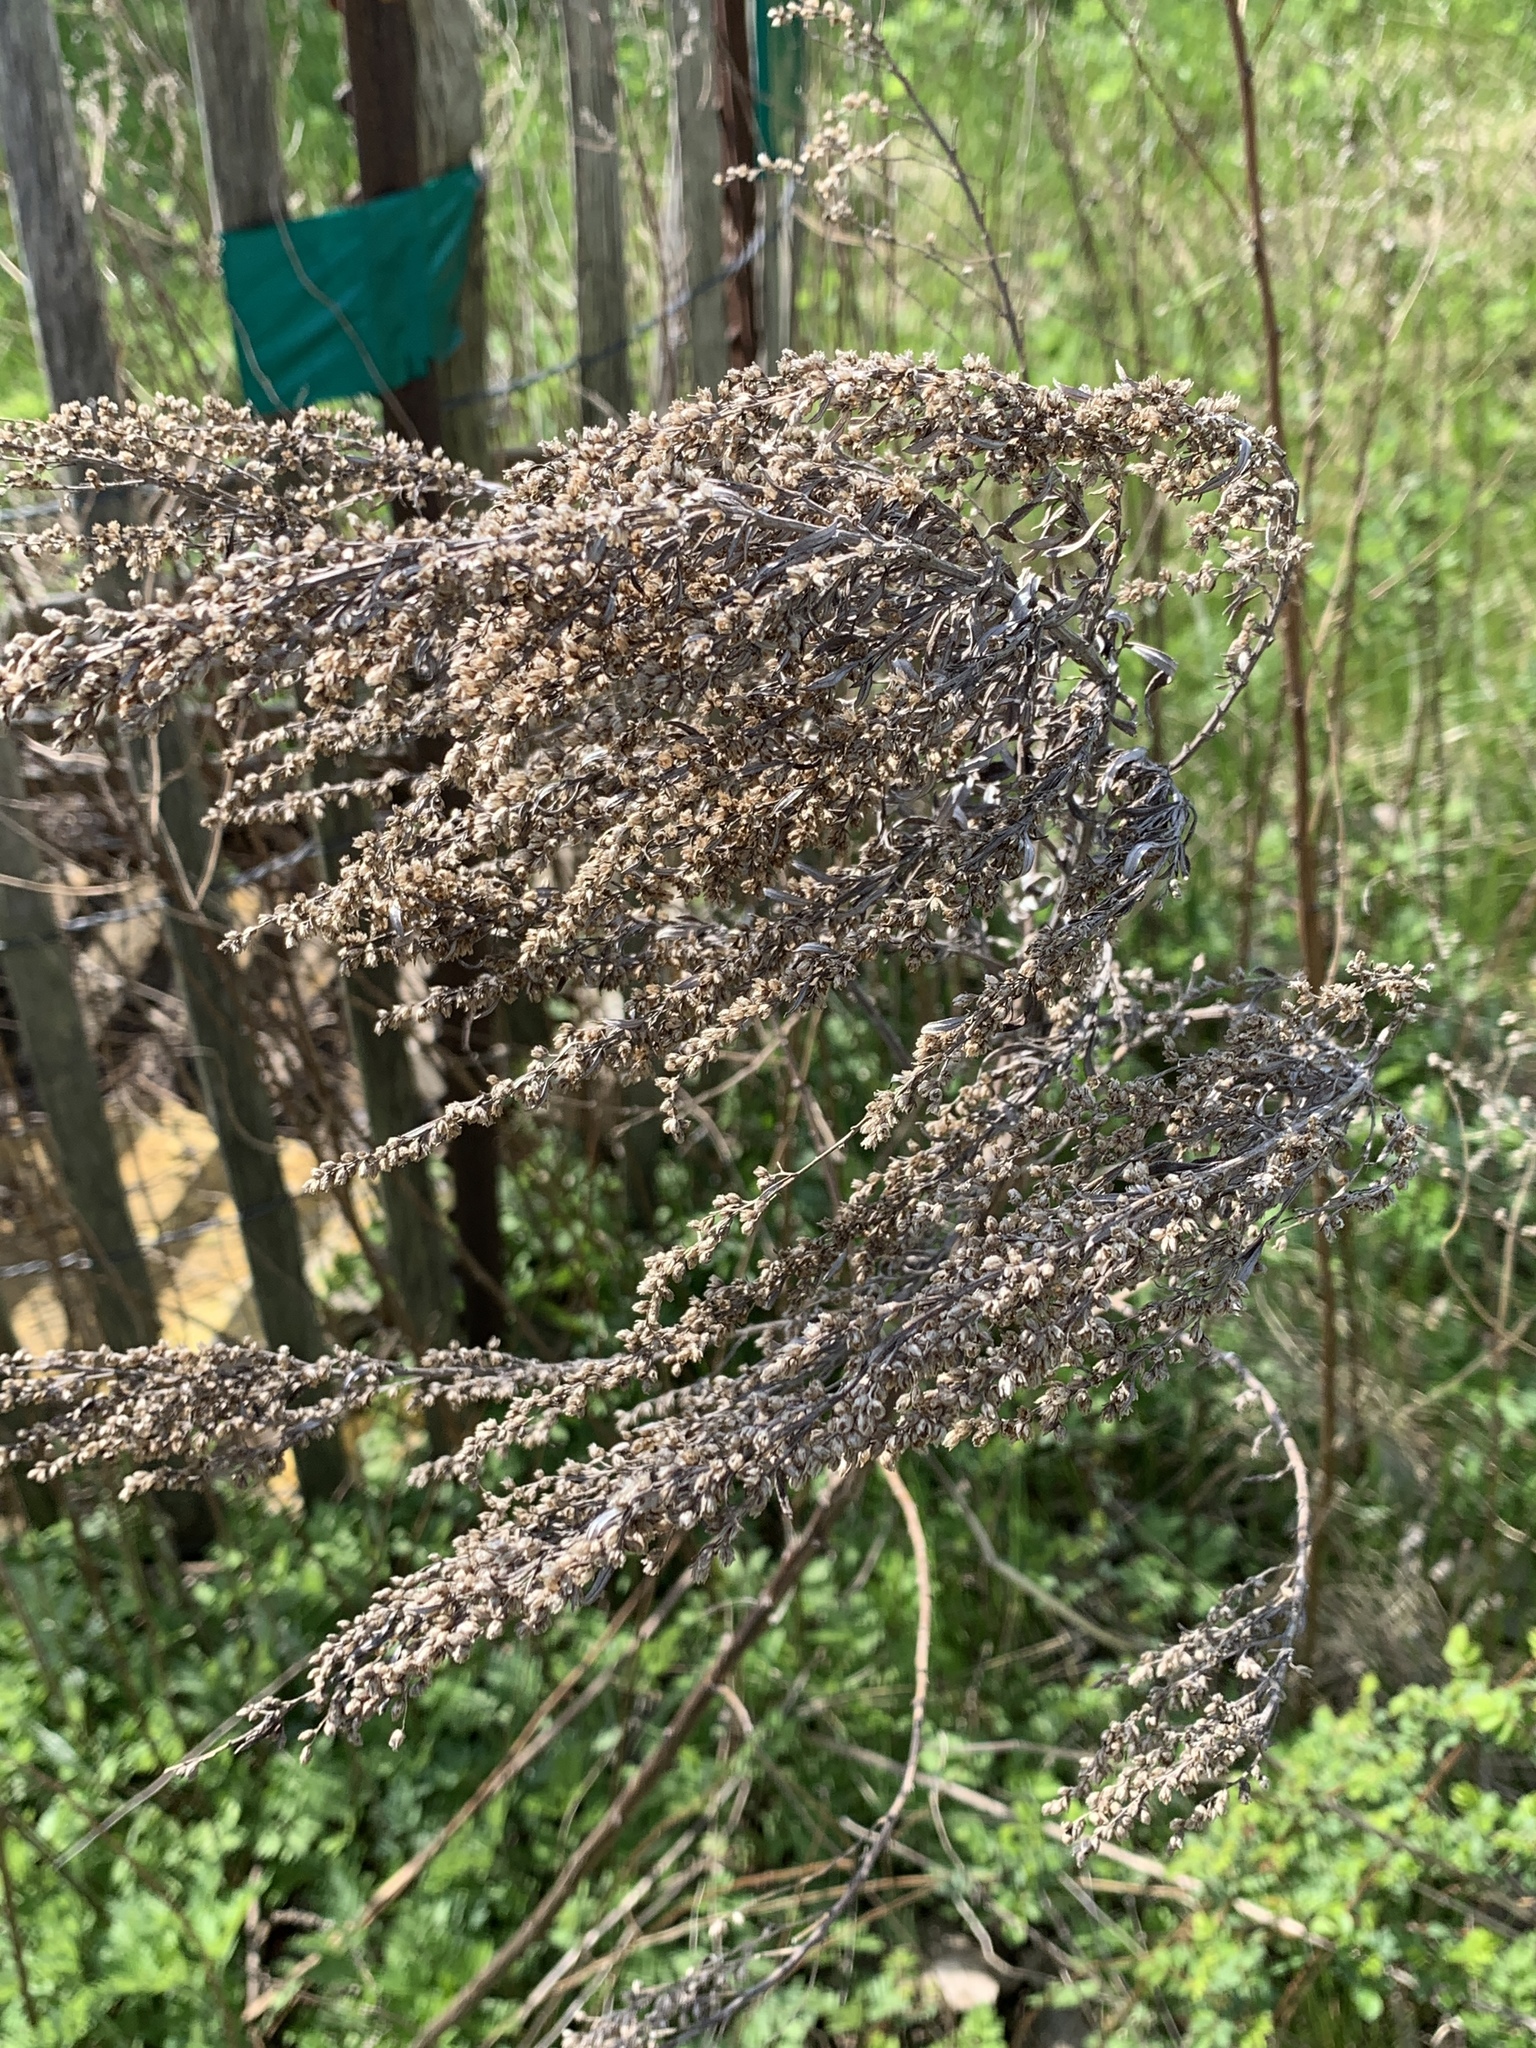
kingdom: Plantae
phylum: Tracheophyta
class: Magnoliopsida
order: Asterales
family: Asteraceae
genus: Artemisia
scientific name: Artemisia vulgaris
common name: Mugwort
